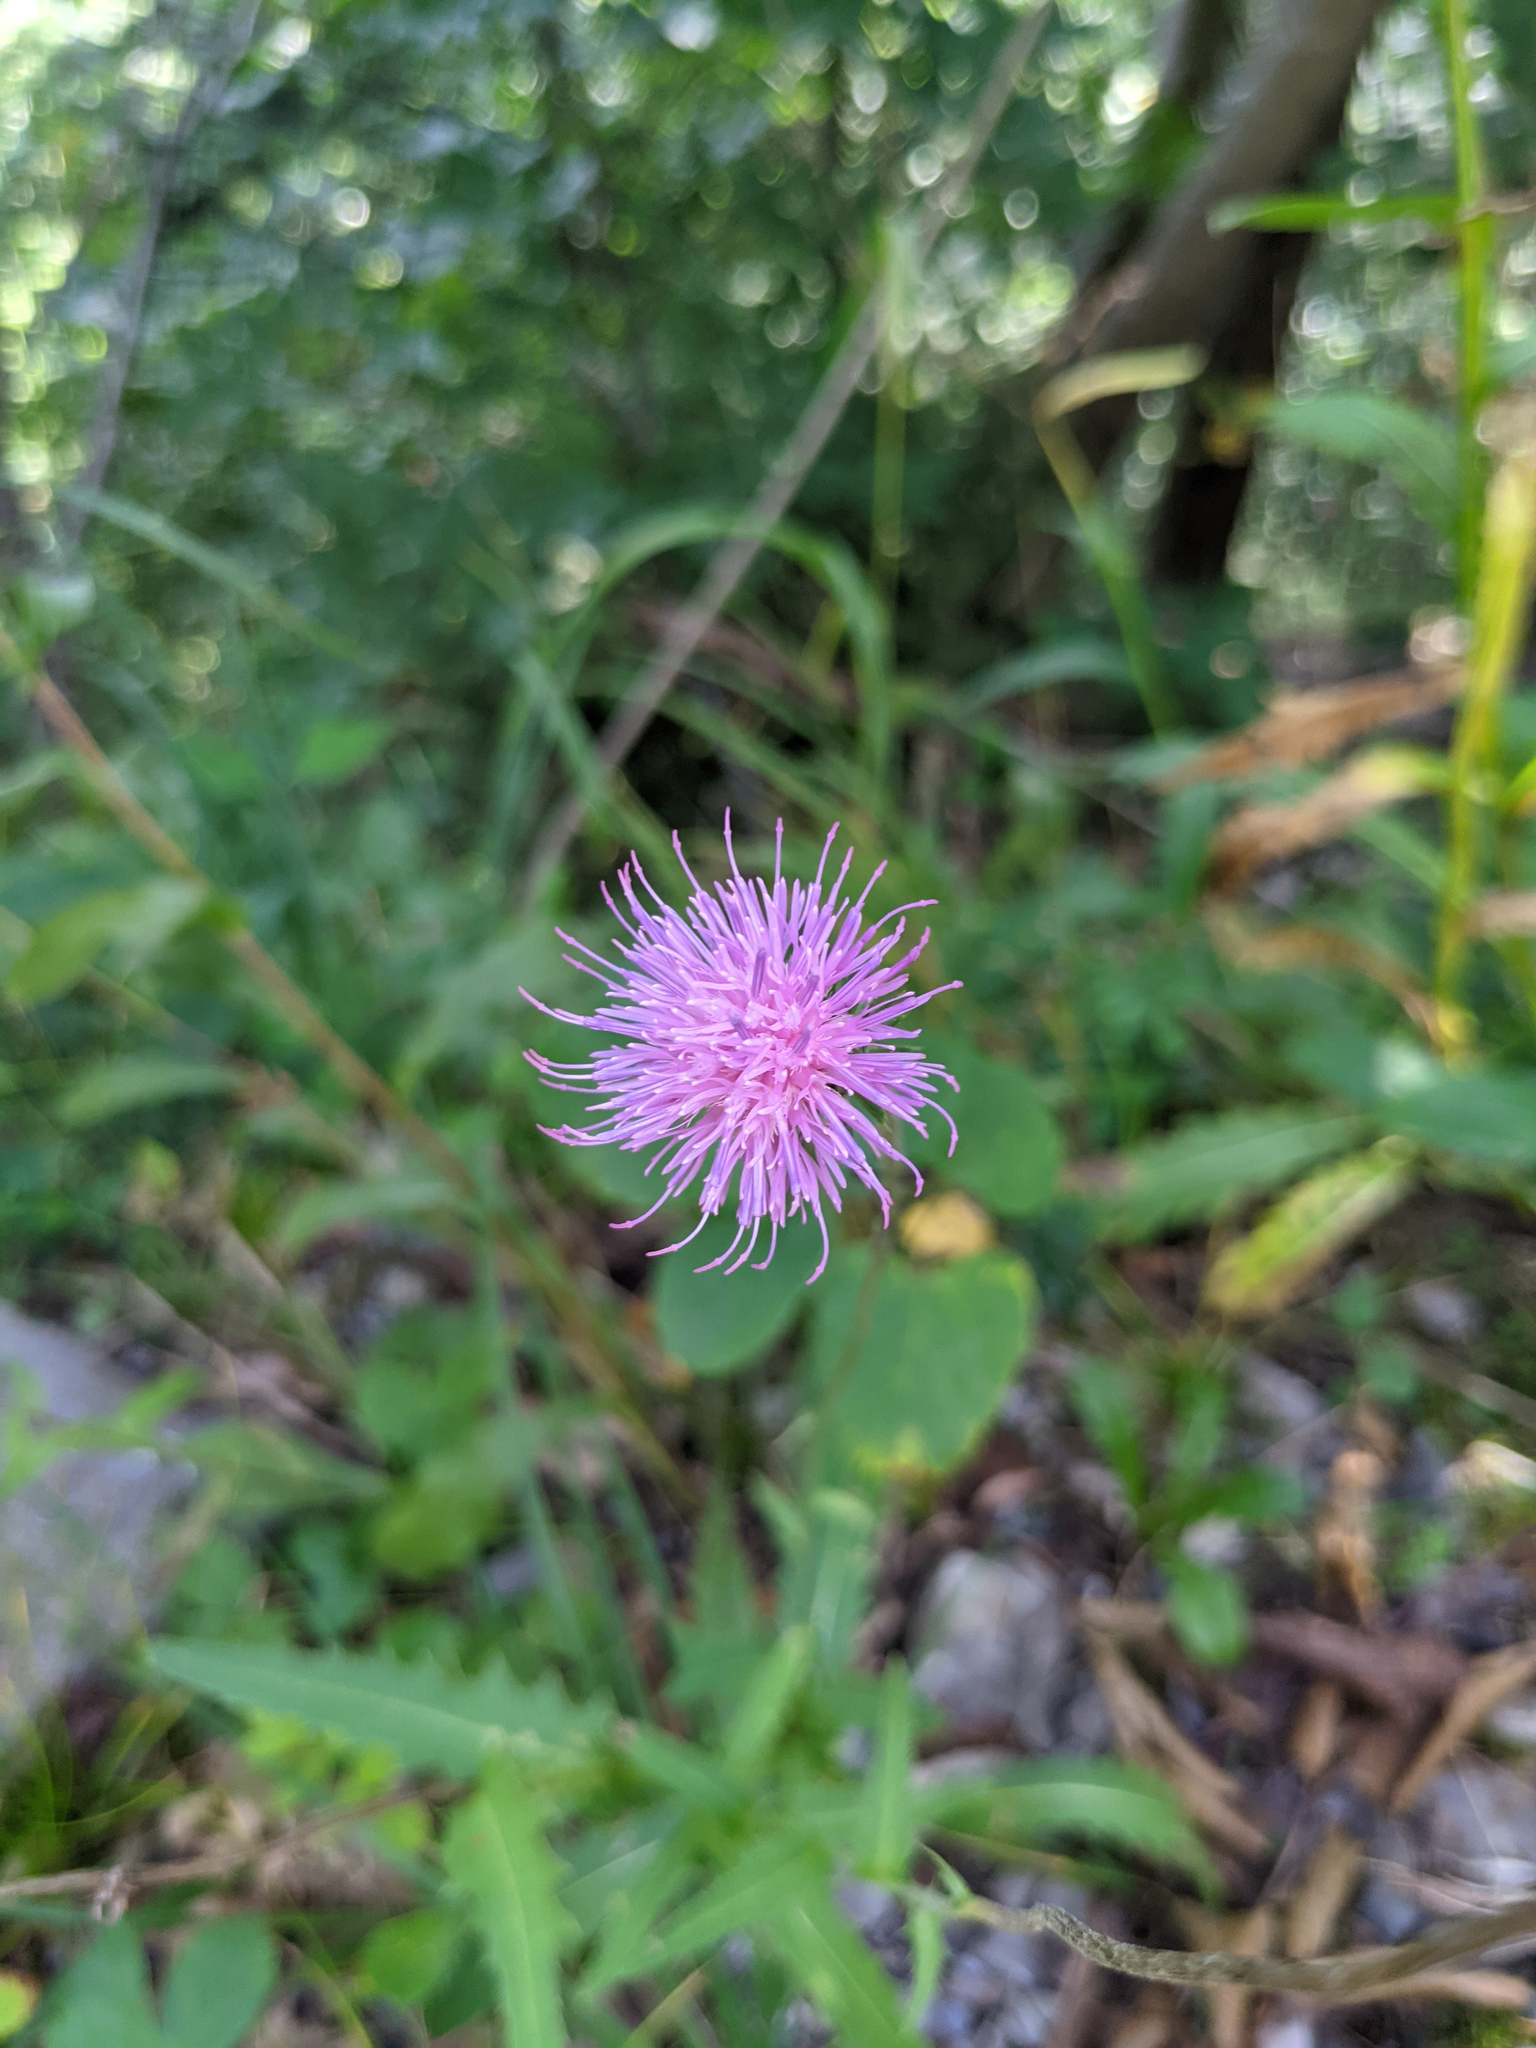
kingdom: Plantae
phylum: Tracheophyta
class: Magnoliopsida
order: Asterales
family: Asteraceae
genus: Carduus
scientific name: Carduus defloratus
